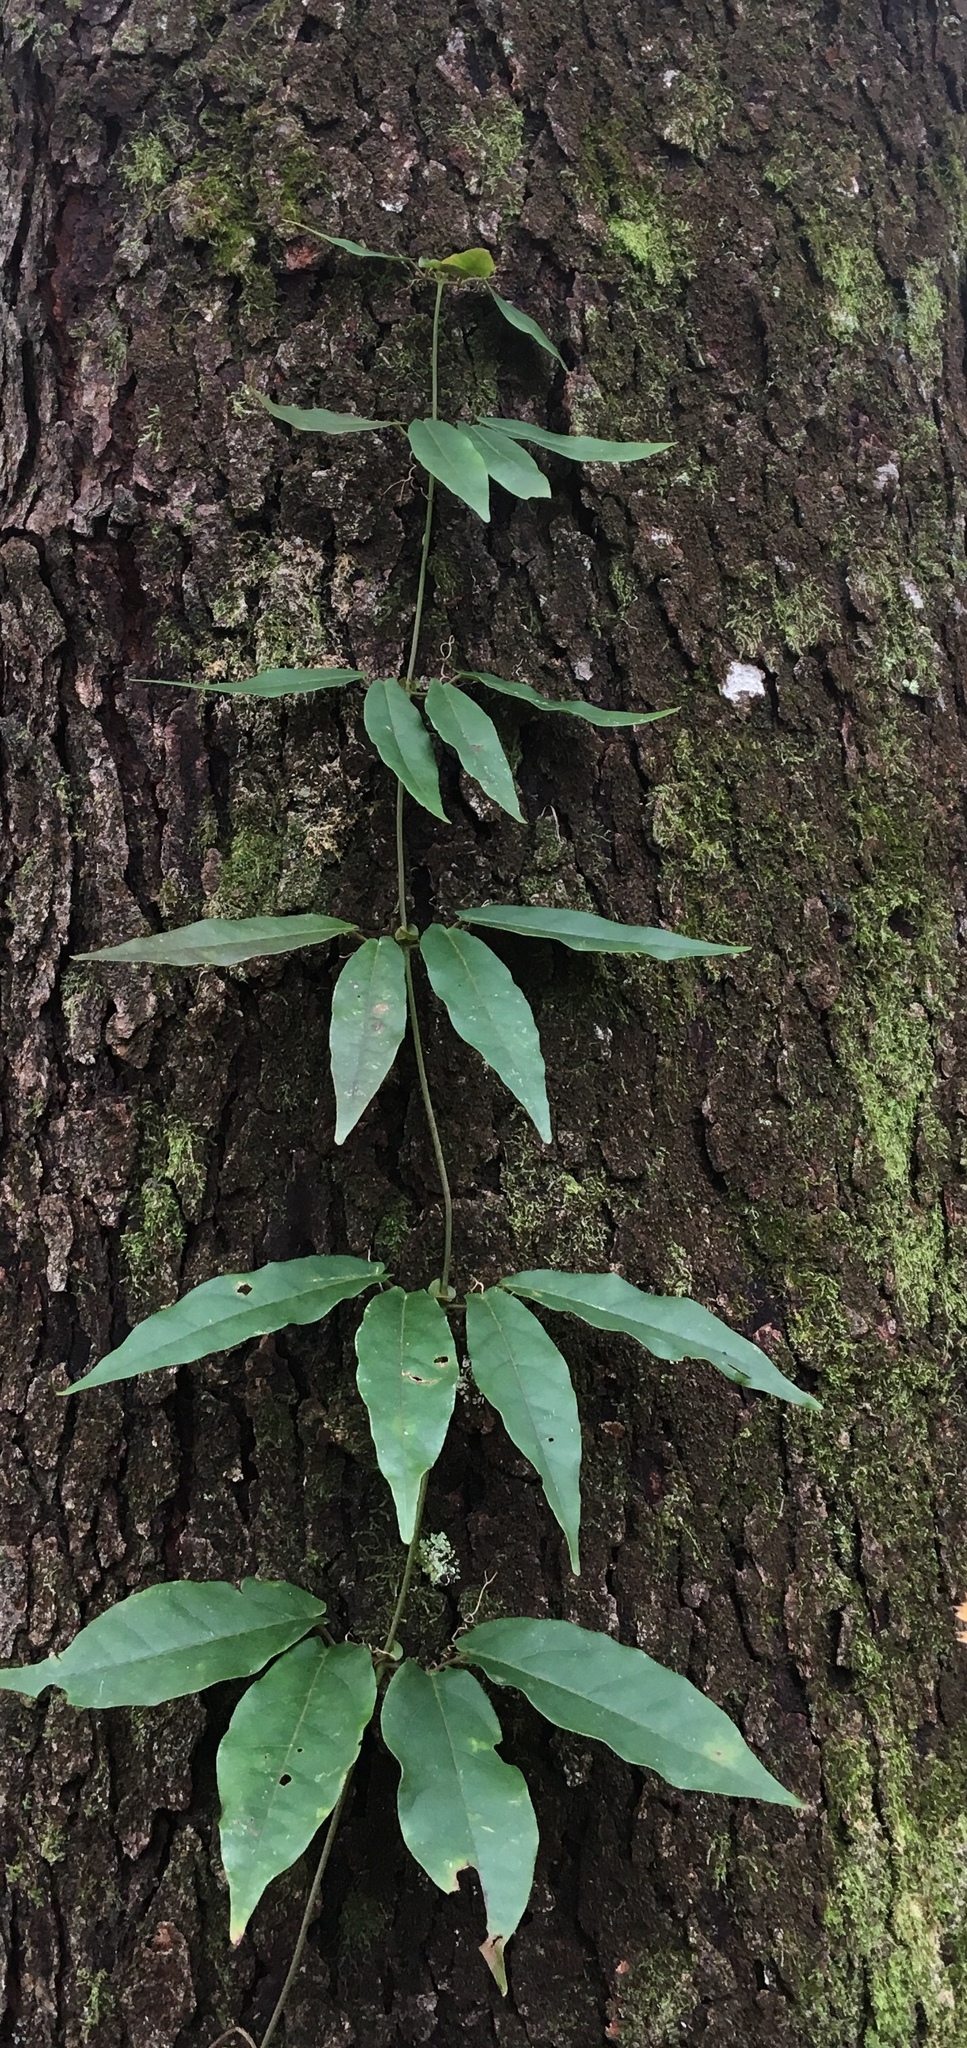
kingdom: Plantae
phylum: Tracheophyta
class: Magnoliopsida
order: Lamiales
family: Bignoniaceae
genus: Bignonia
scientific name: Bignonia capreolata
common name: Crossvine
